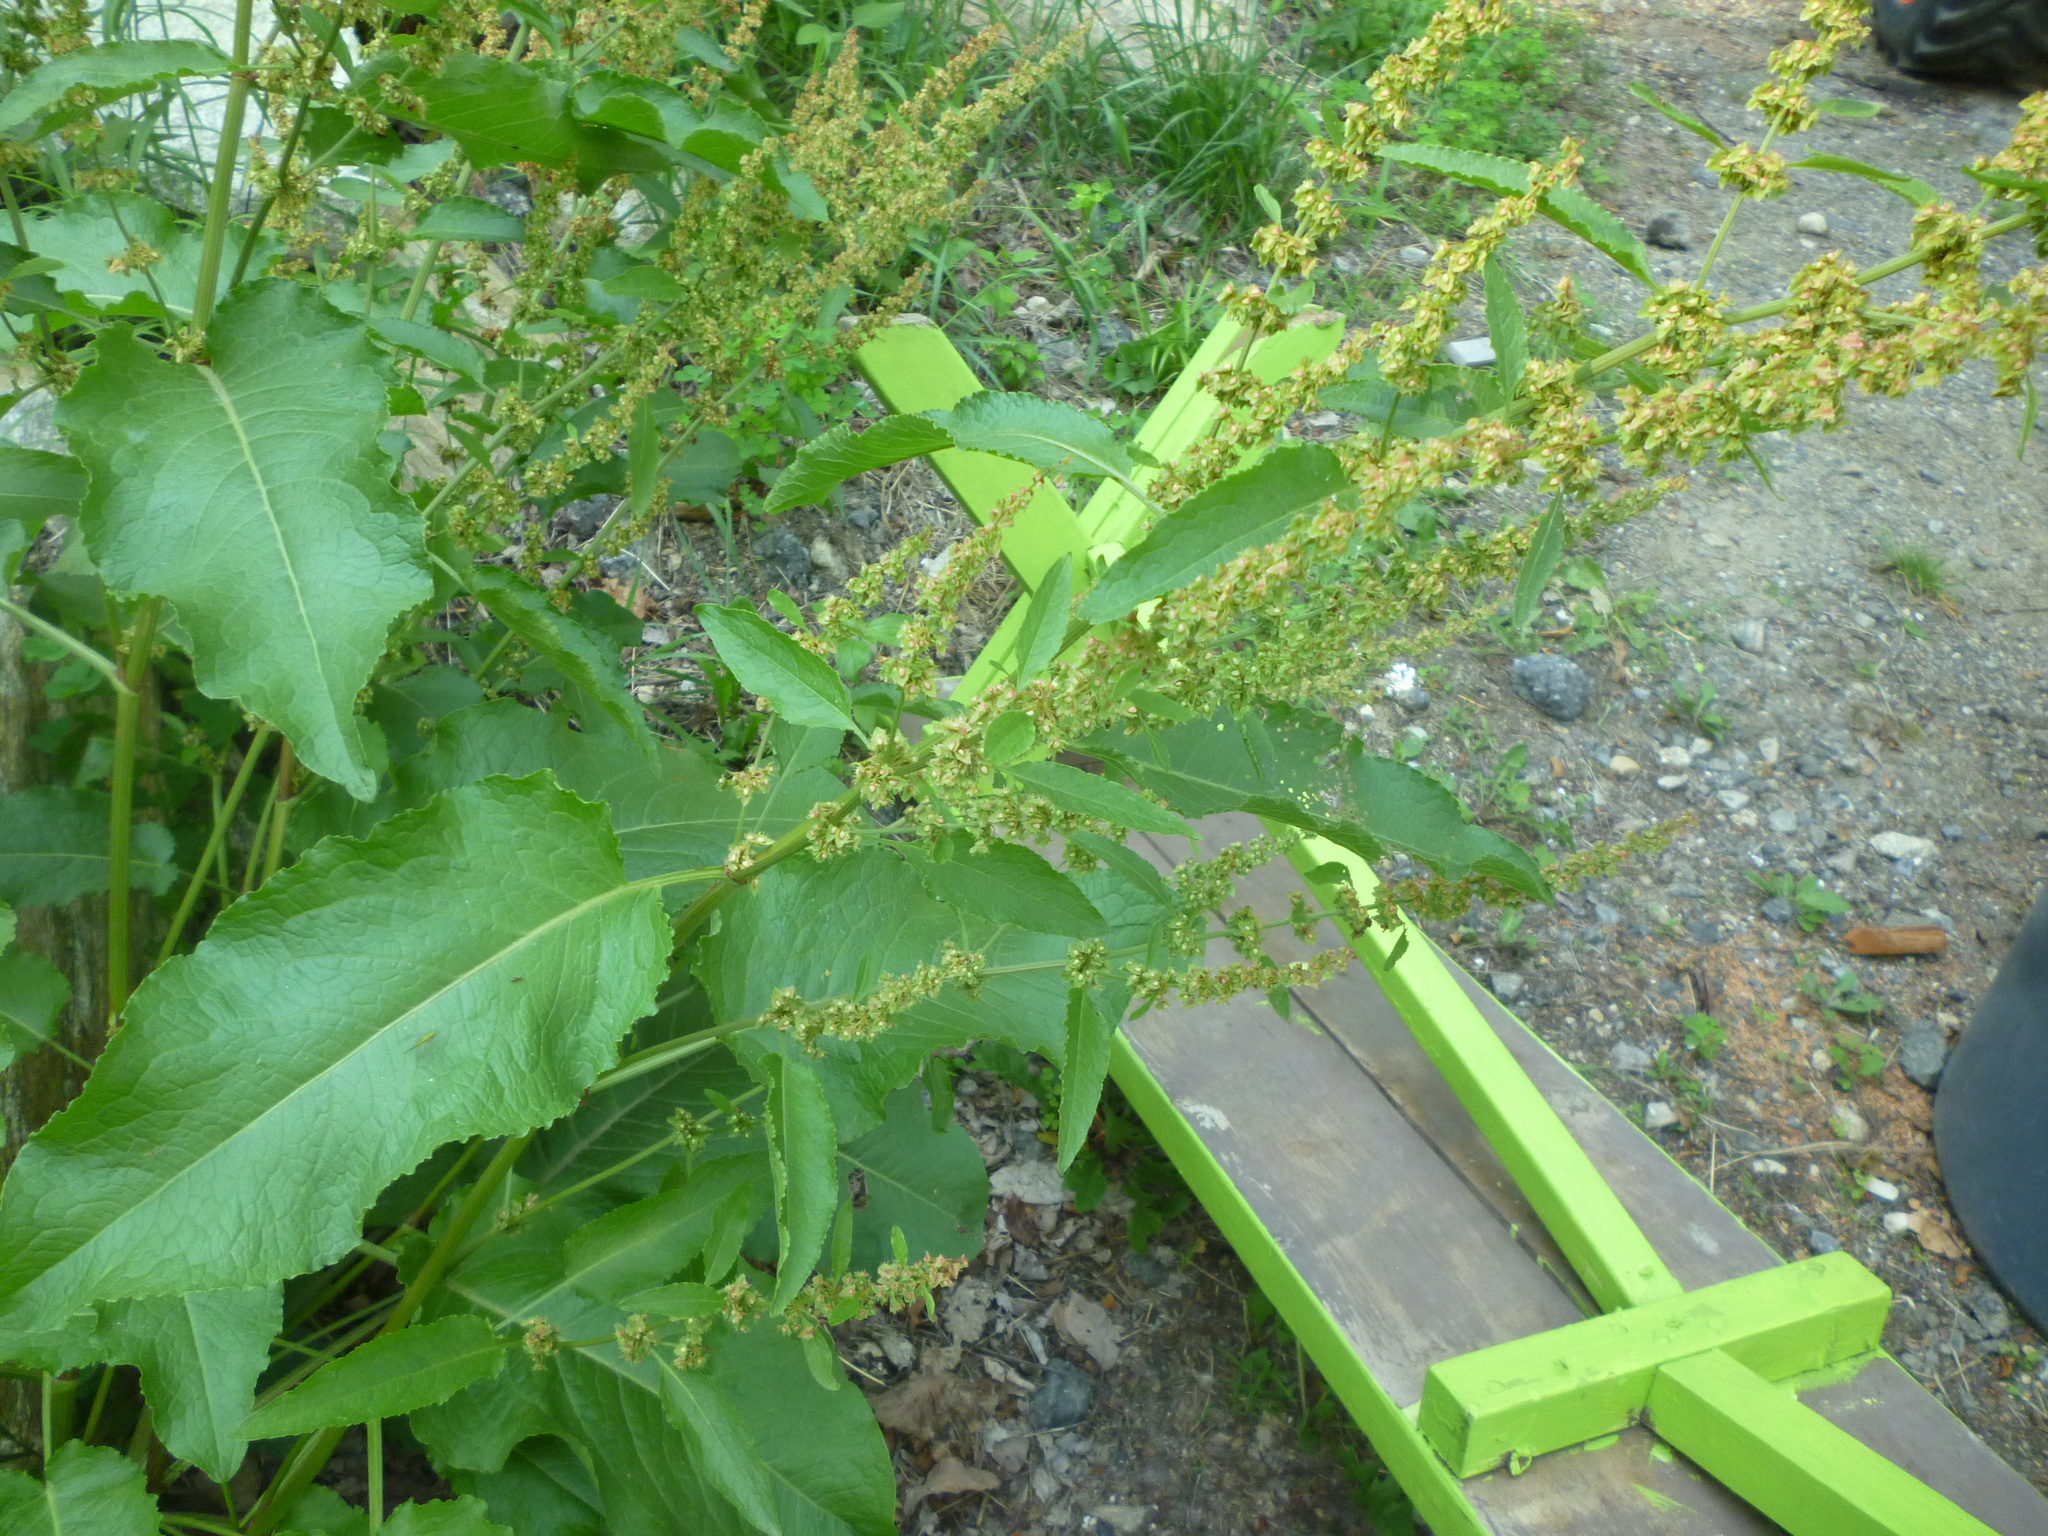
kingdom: Plantae
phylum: Tracheophyta
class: Magnoliopsida
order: Caryophyllales
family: Polygonaceae
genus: Rumex
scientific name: Rumex obtusifolius
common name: Bitter dock
